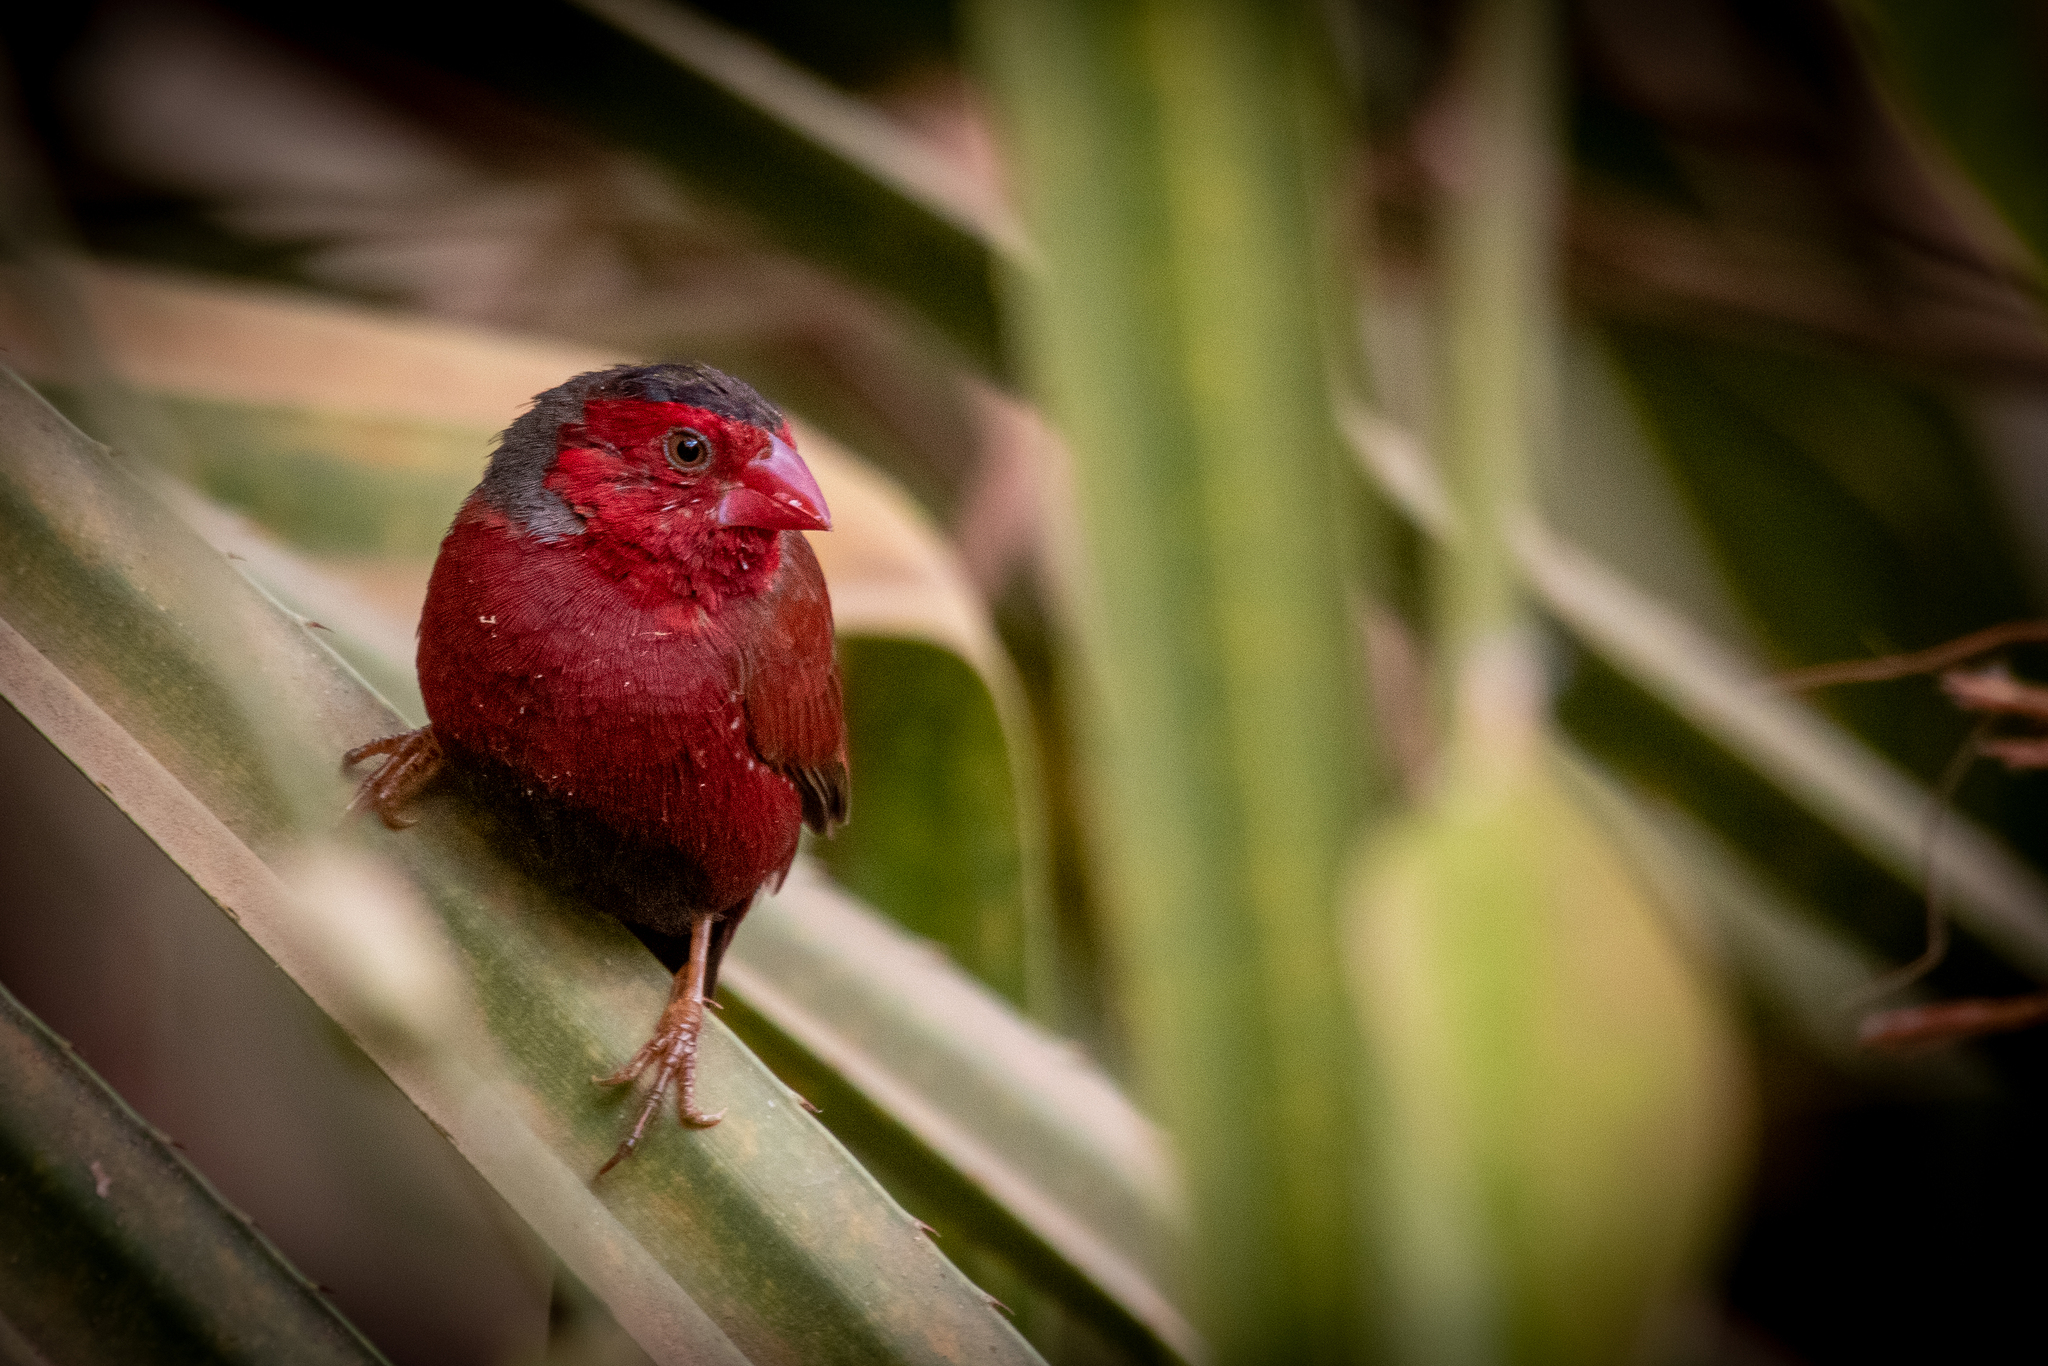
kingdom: Animalia
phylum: Chordata
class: Aves
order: Passeriformes
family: Estrildidae
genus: Neochmia
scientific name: Neochmia phaeton
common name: Crimson finch
